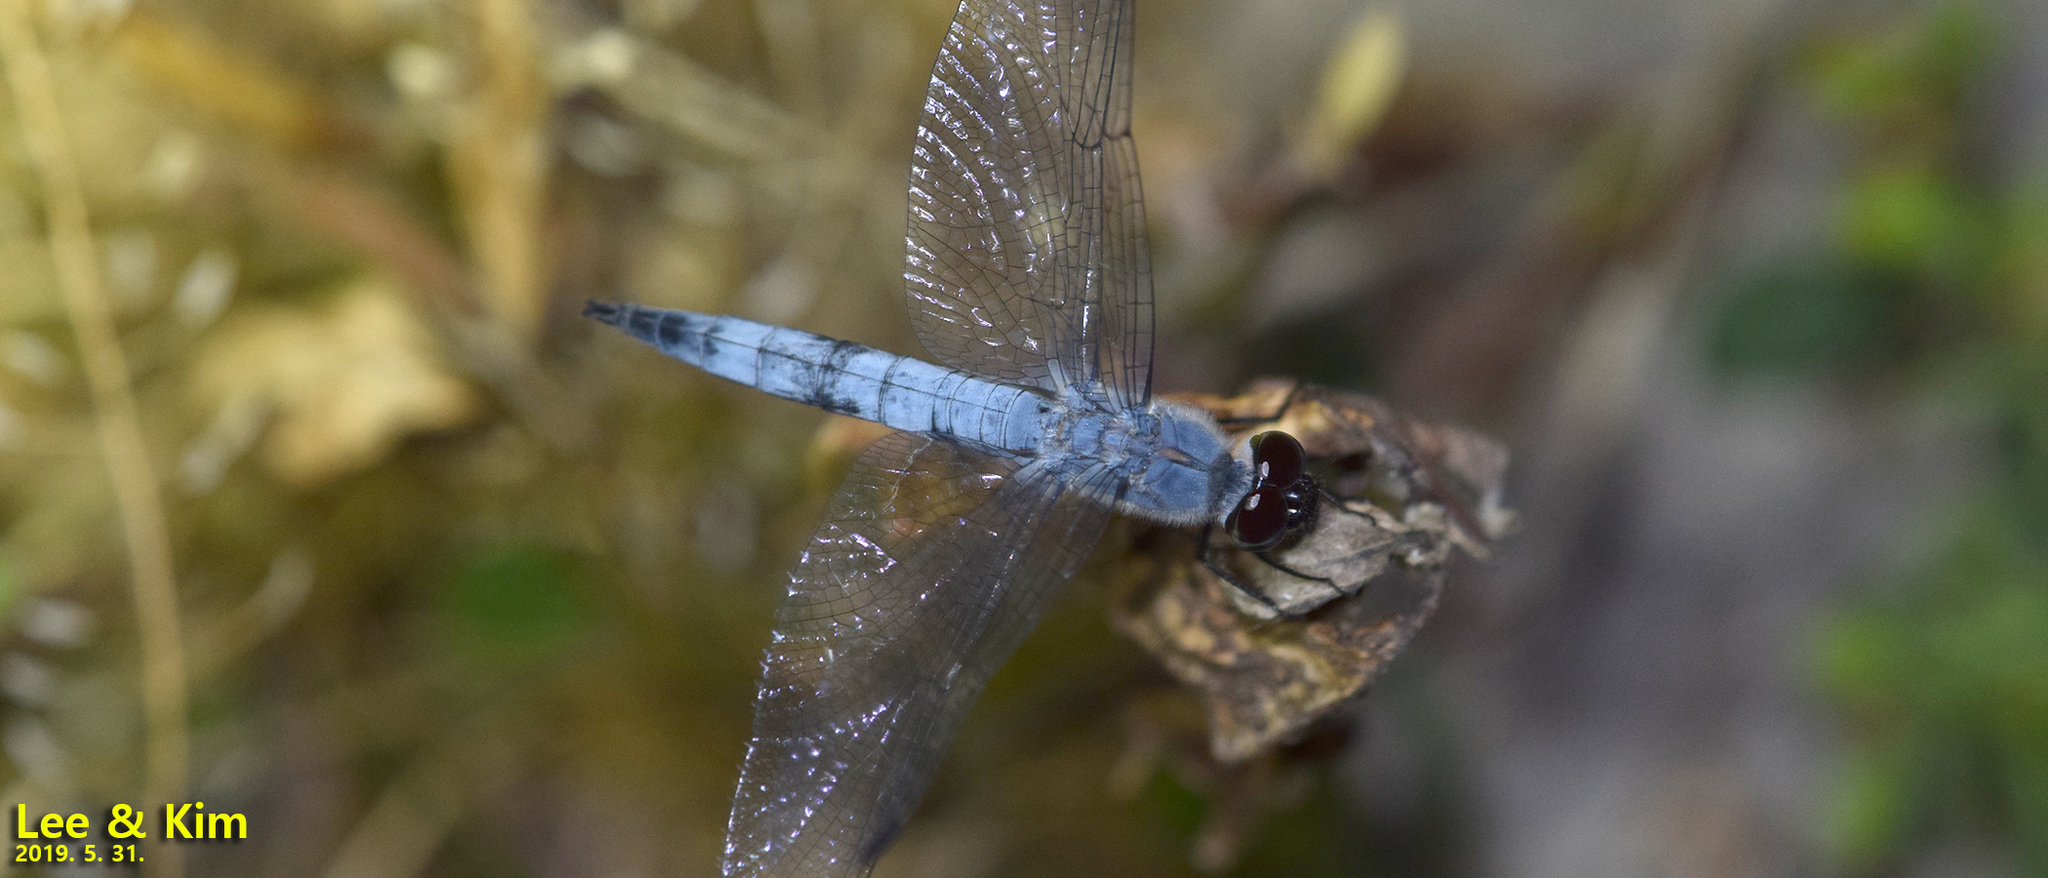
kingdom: Animalia
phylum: Arthropoda
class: Insecta
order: Odonata
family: Libellulidae
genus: Deielia
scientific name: Deielia phaon
